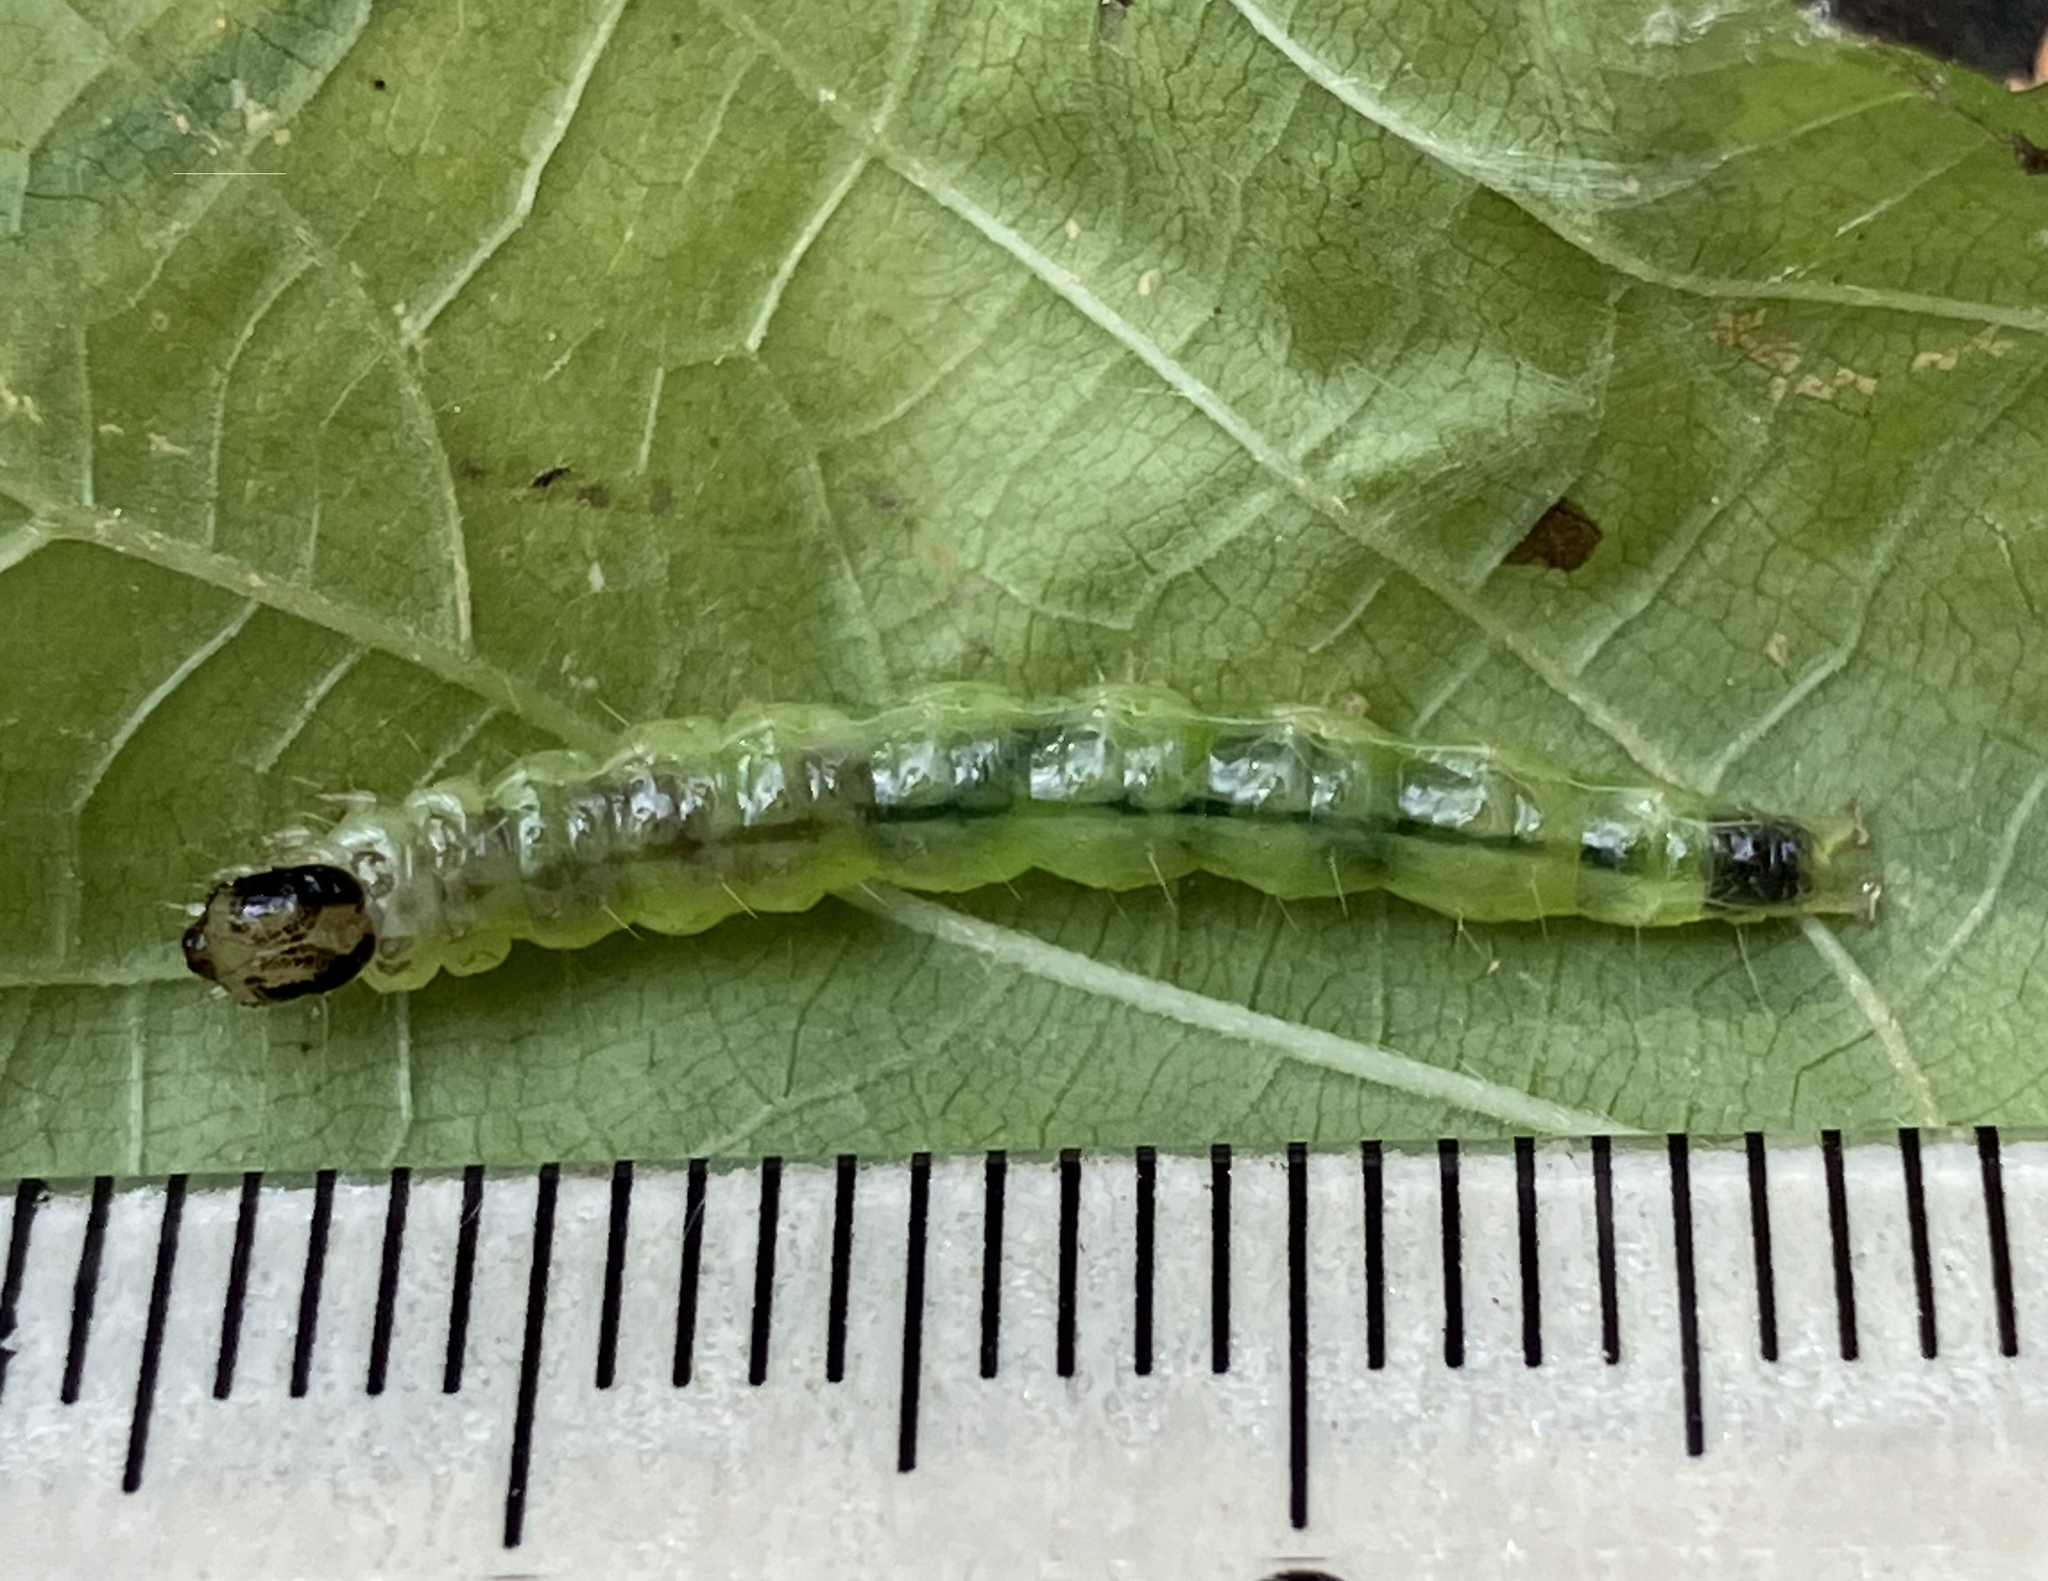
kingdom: Animalia
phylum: Arthropoda
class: Insecta
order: Lepidoptera
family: Crambidae
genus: Pleuroptya
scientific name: Pleuroptya silicalis
